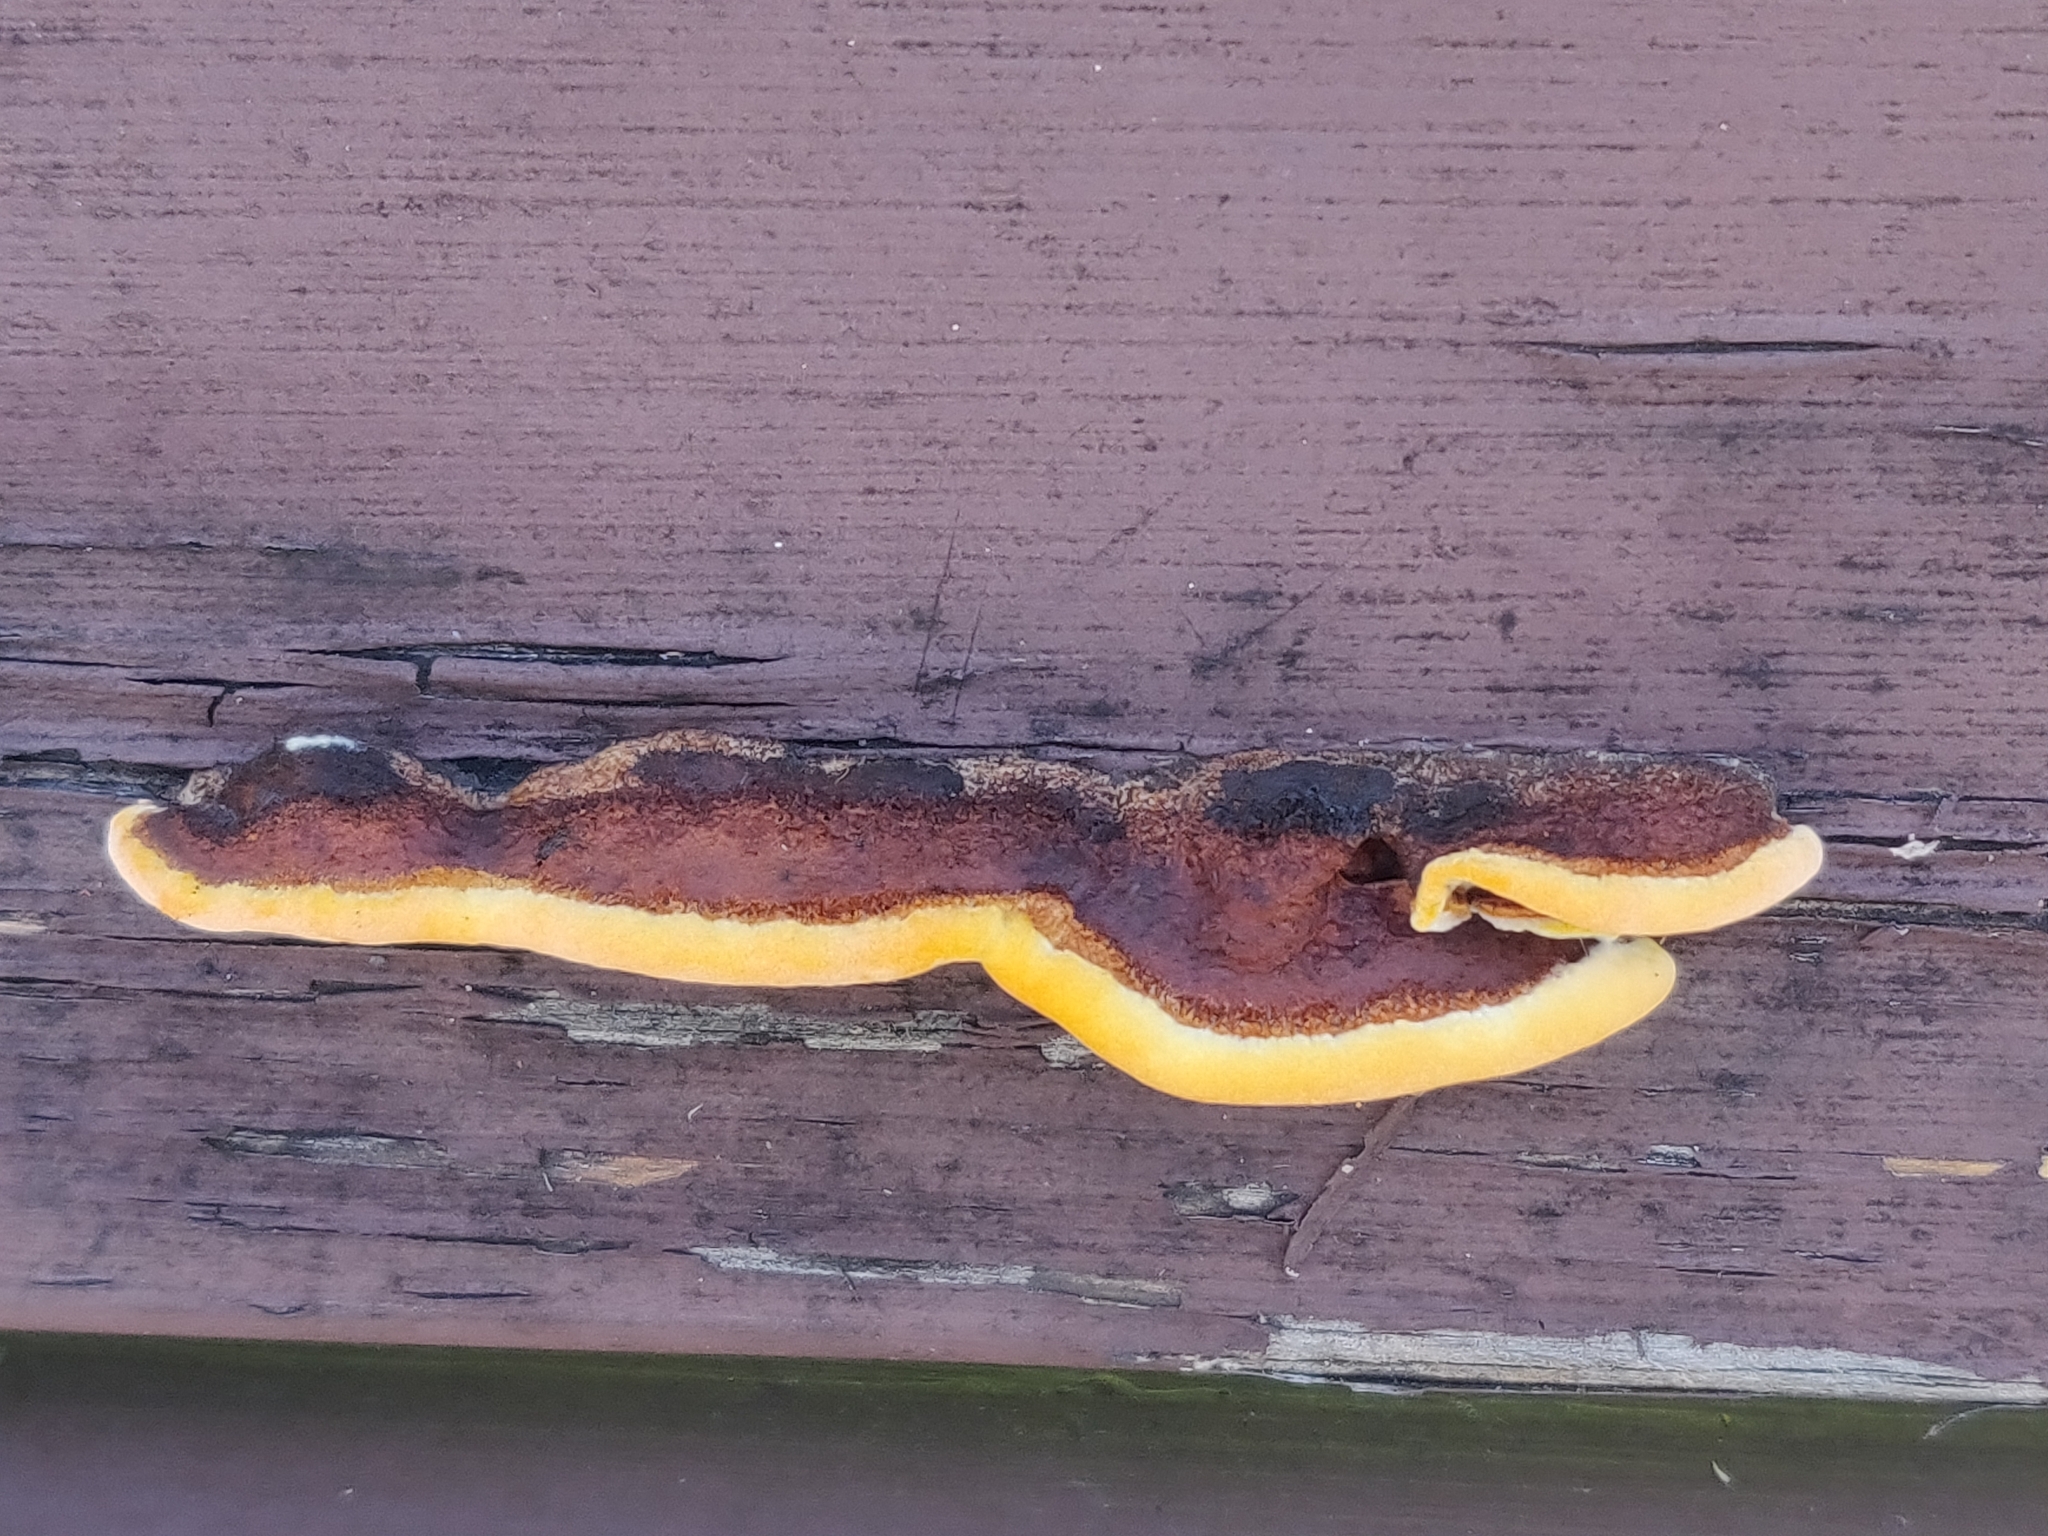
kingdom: Fungi
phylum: Basidiomycota
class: Agaricomycetes
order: Gloeophyllales
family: Gloeophyllaceae
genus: Gloeophyllum
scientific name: Gloeophyllum sepiarium
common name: Conifer mazegill
